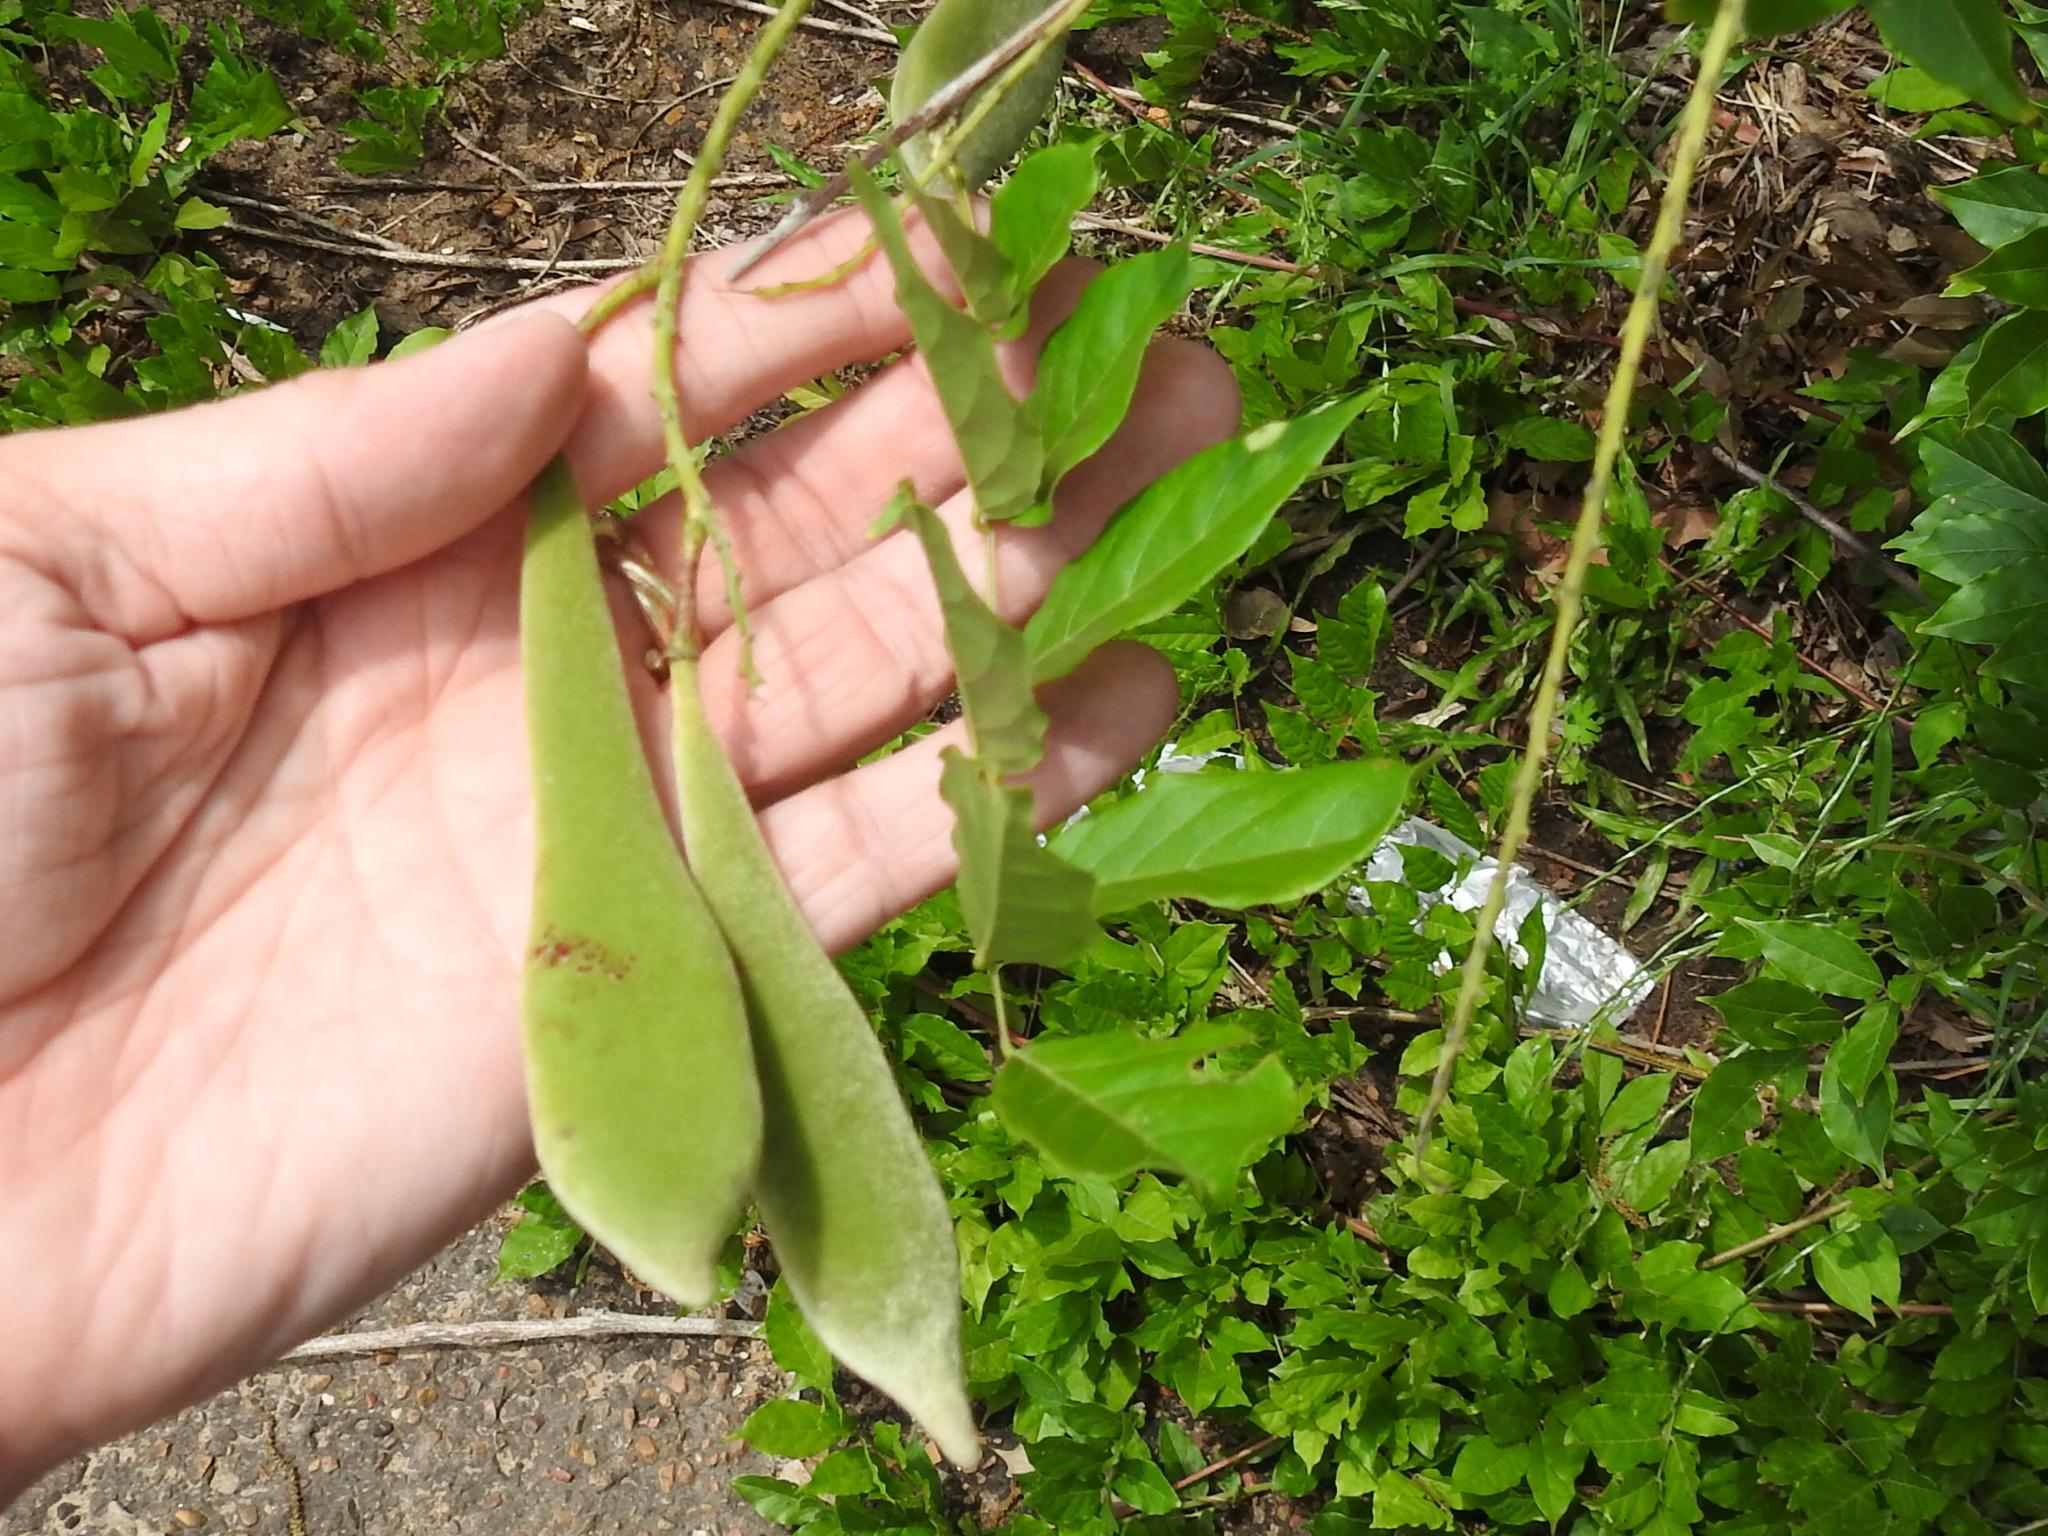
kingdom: Plantae
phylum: Tracheophyta
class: Magnoliopsida
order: Fabales
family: Fabaceae
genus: Wisteria
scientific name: Wisteria sinensis
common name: Chinese wisteria
